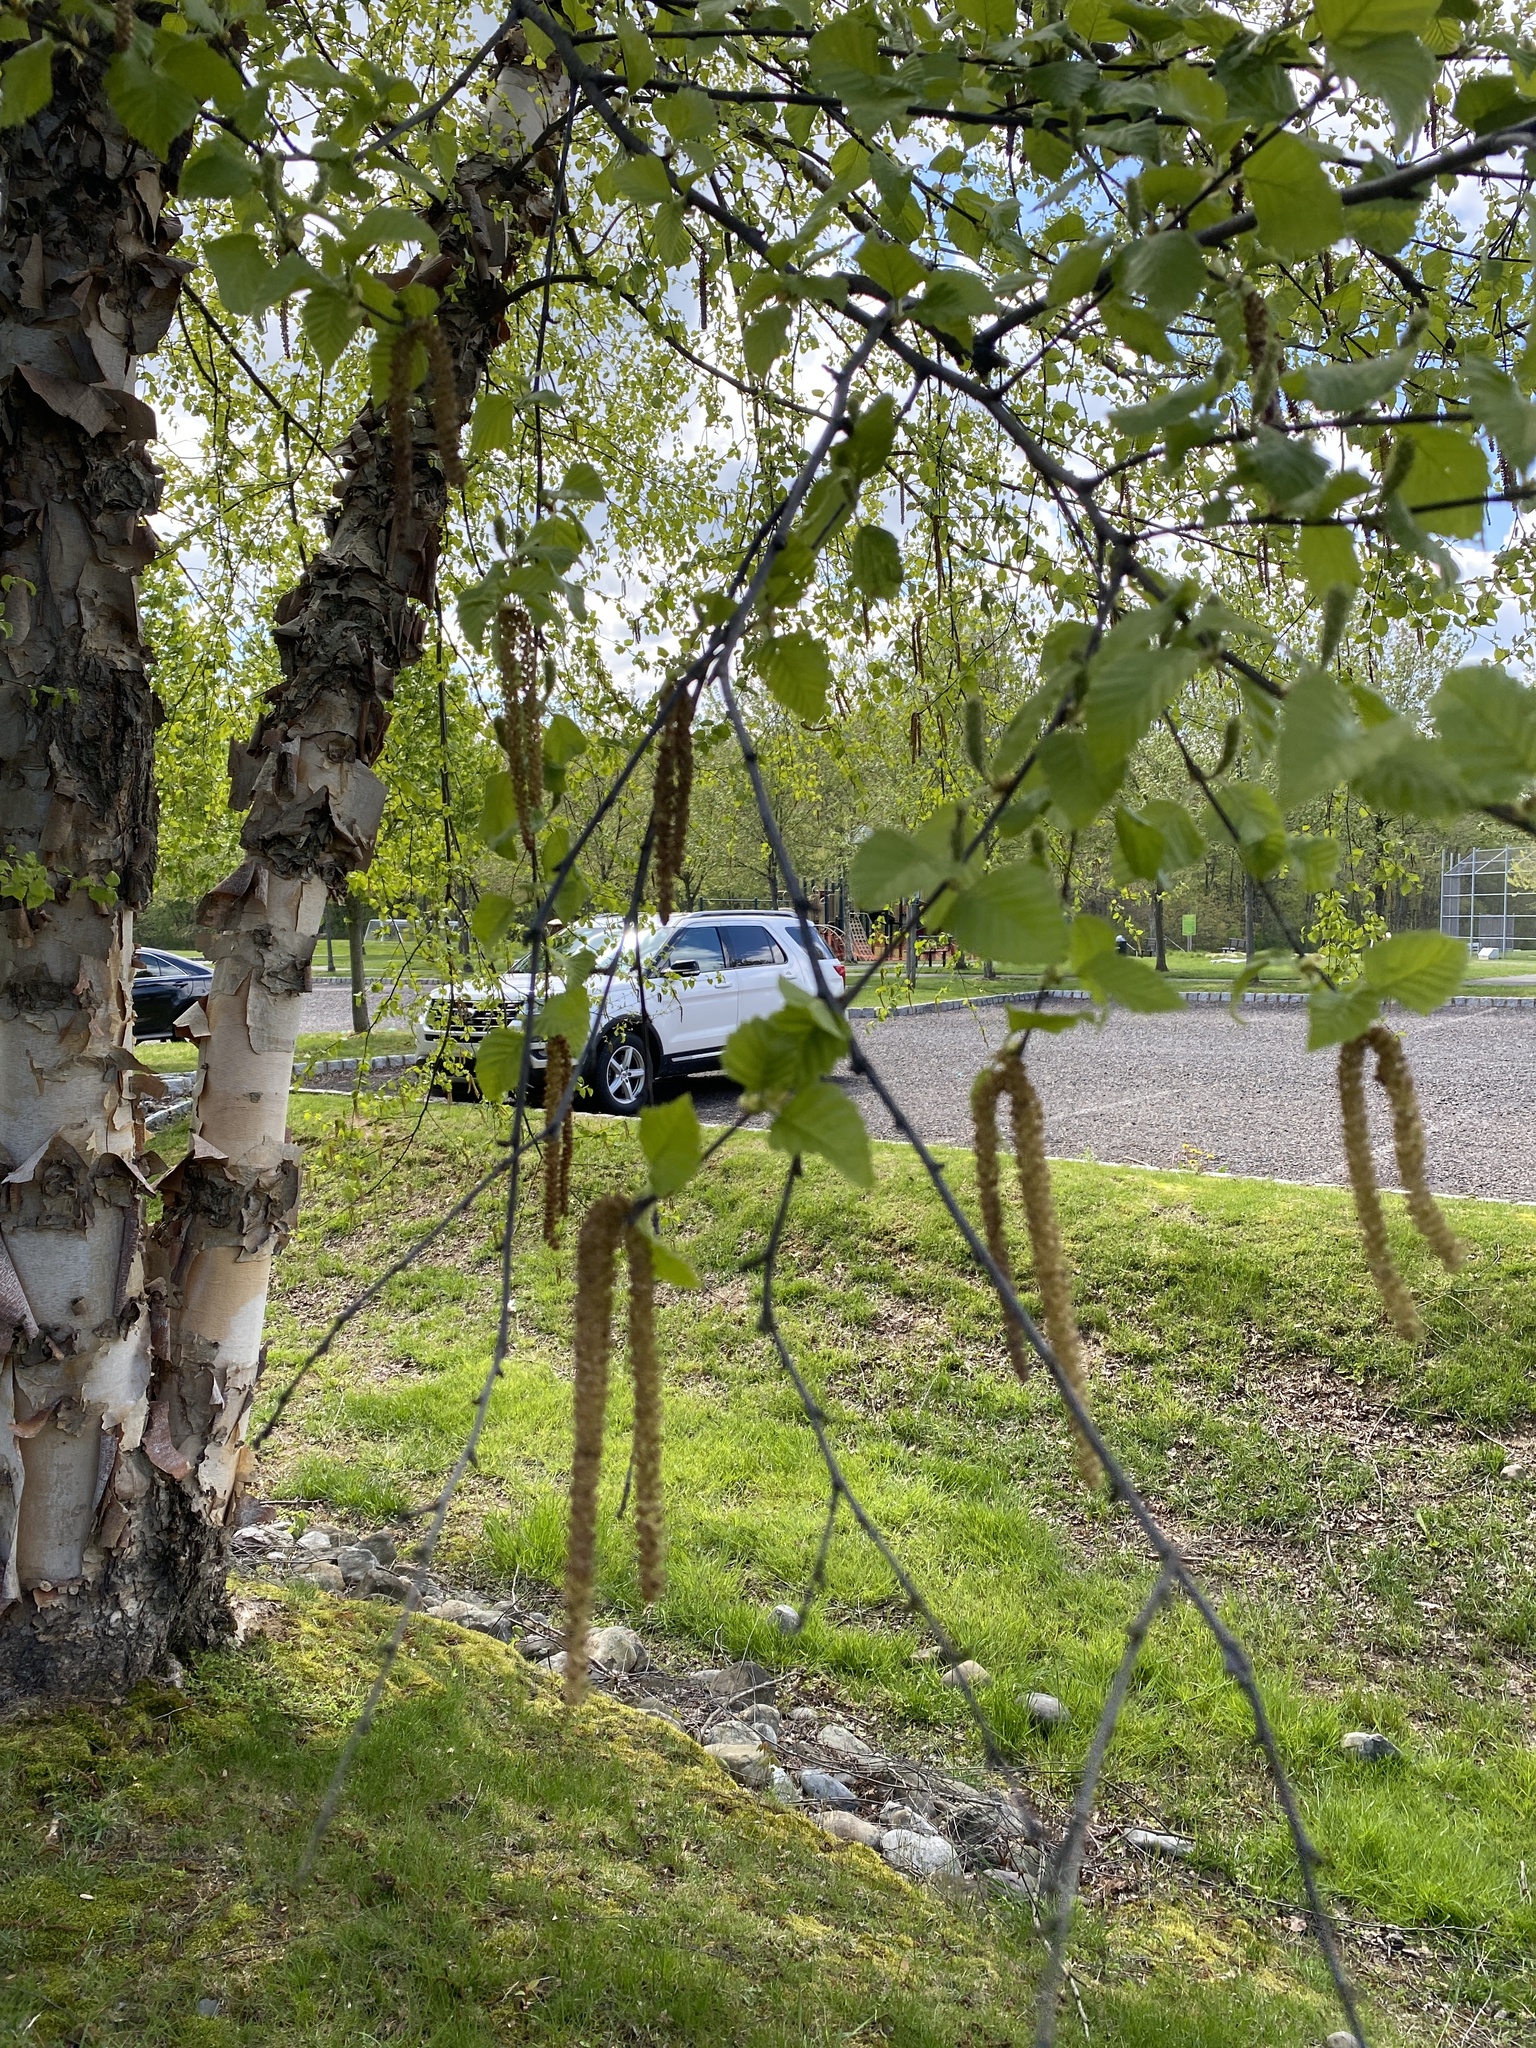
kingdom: Plantae
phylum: Tracheophyta
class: Magnoliopsida
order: Fagales
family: Betulaceae
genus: Betula
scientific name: Betula pendula
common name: Silver birch
